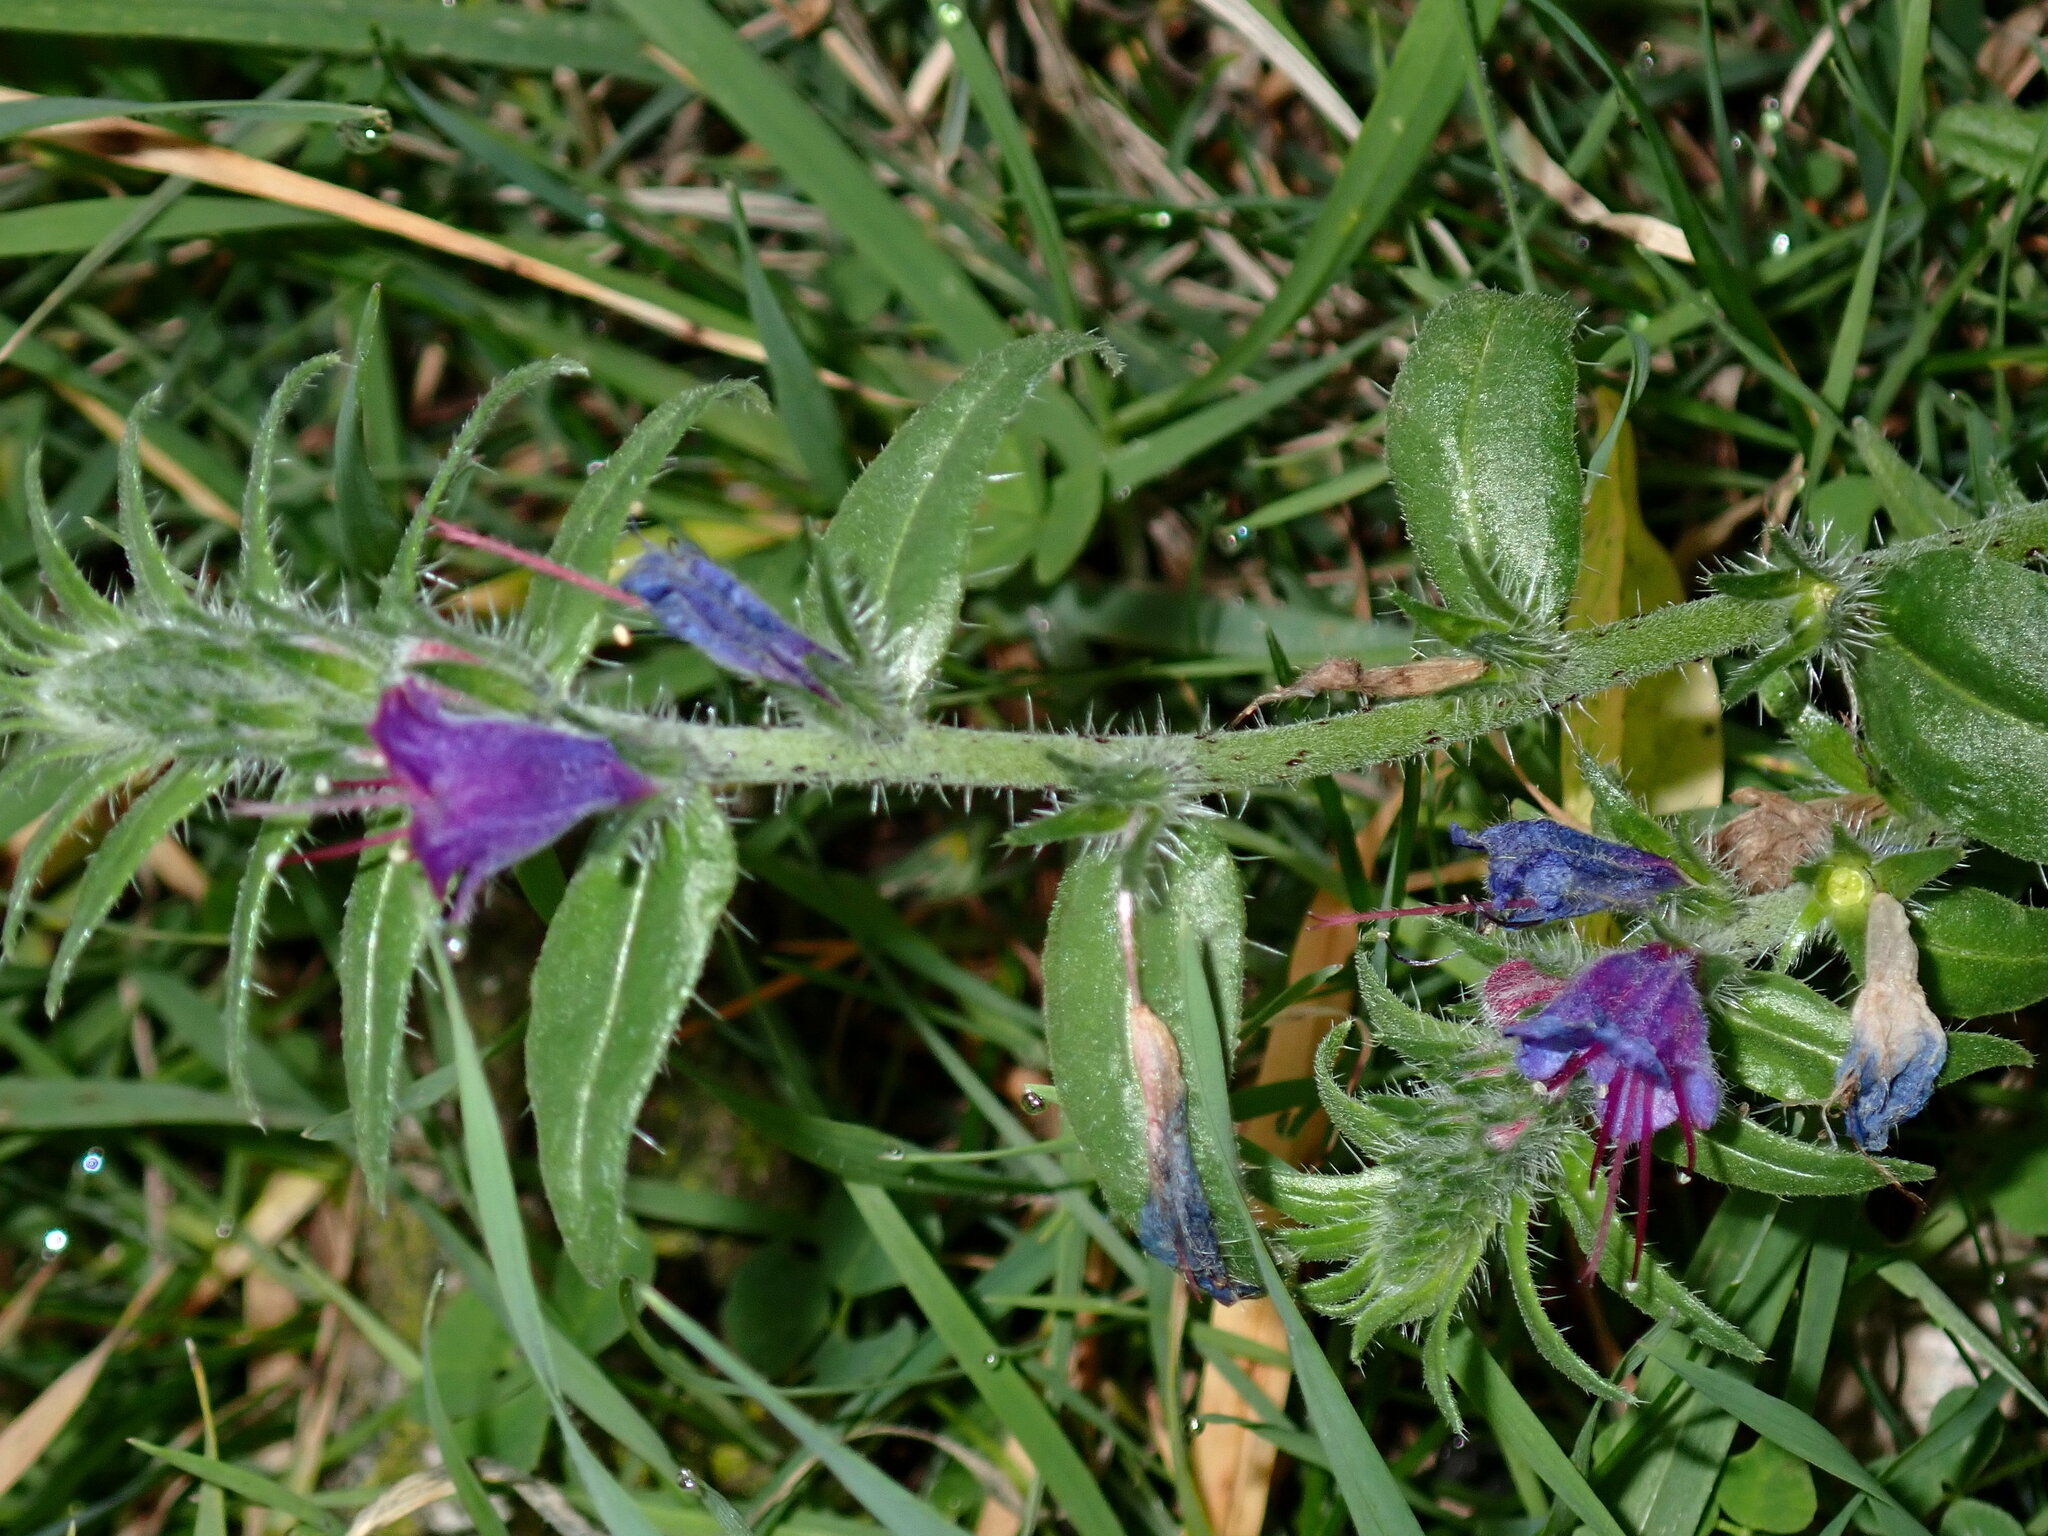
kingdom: Plantae
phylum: Tracheophyta
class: Magnoliopsida
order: Boraginales
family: Boraginaceae
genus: Echium
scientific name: Echium vulgare
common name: Common viper's bugloss
